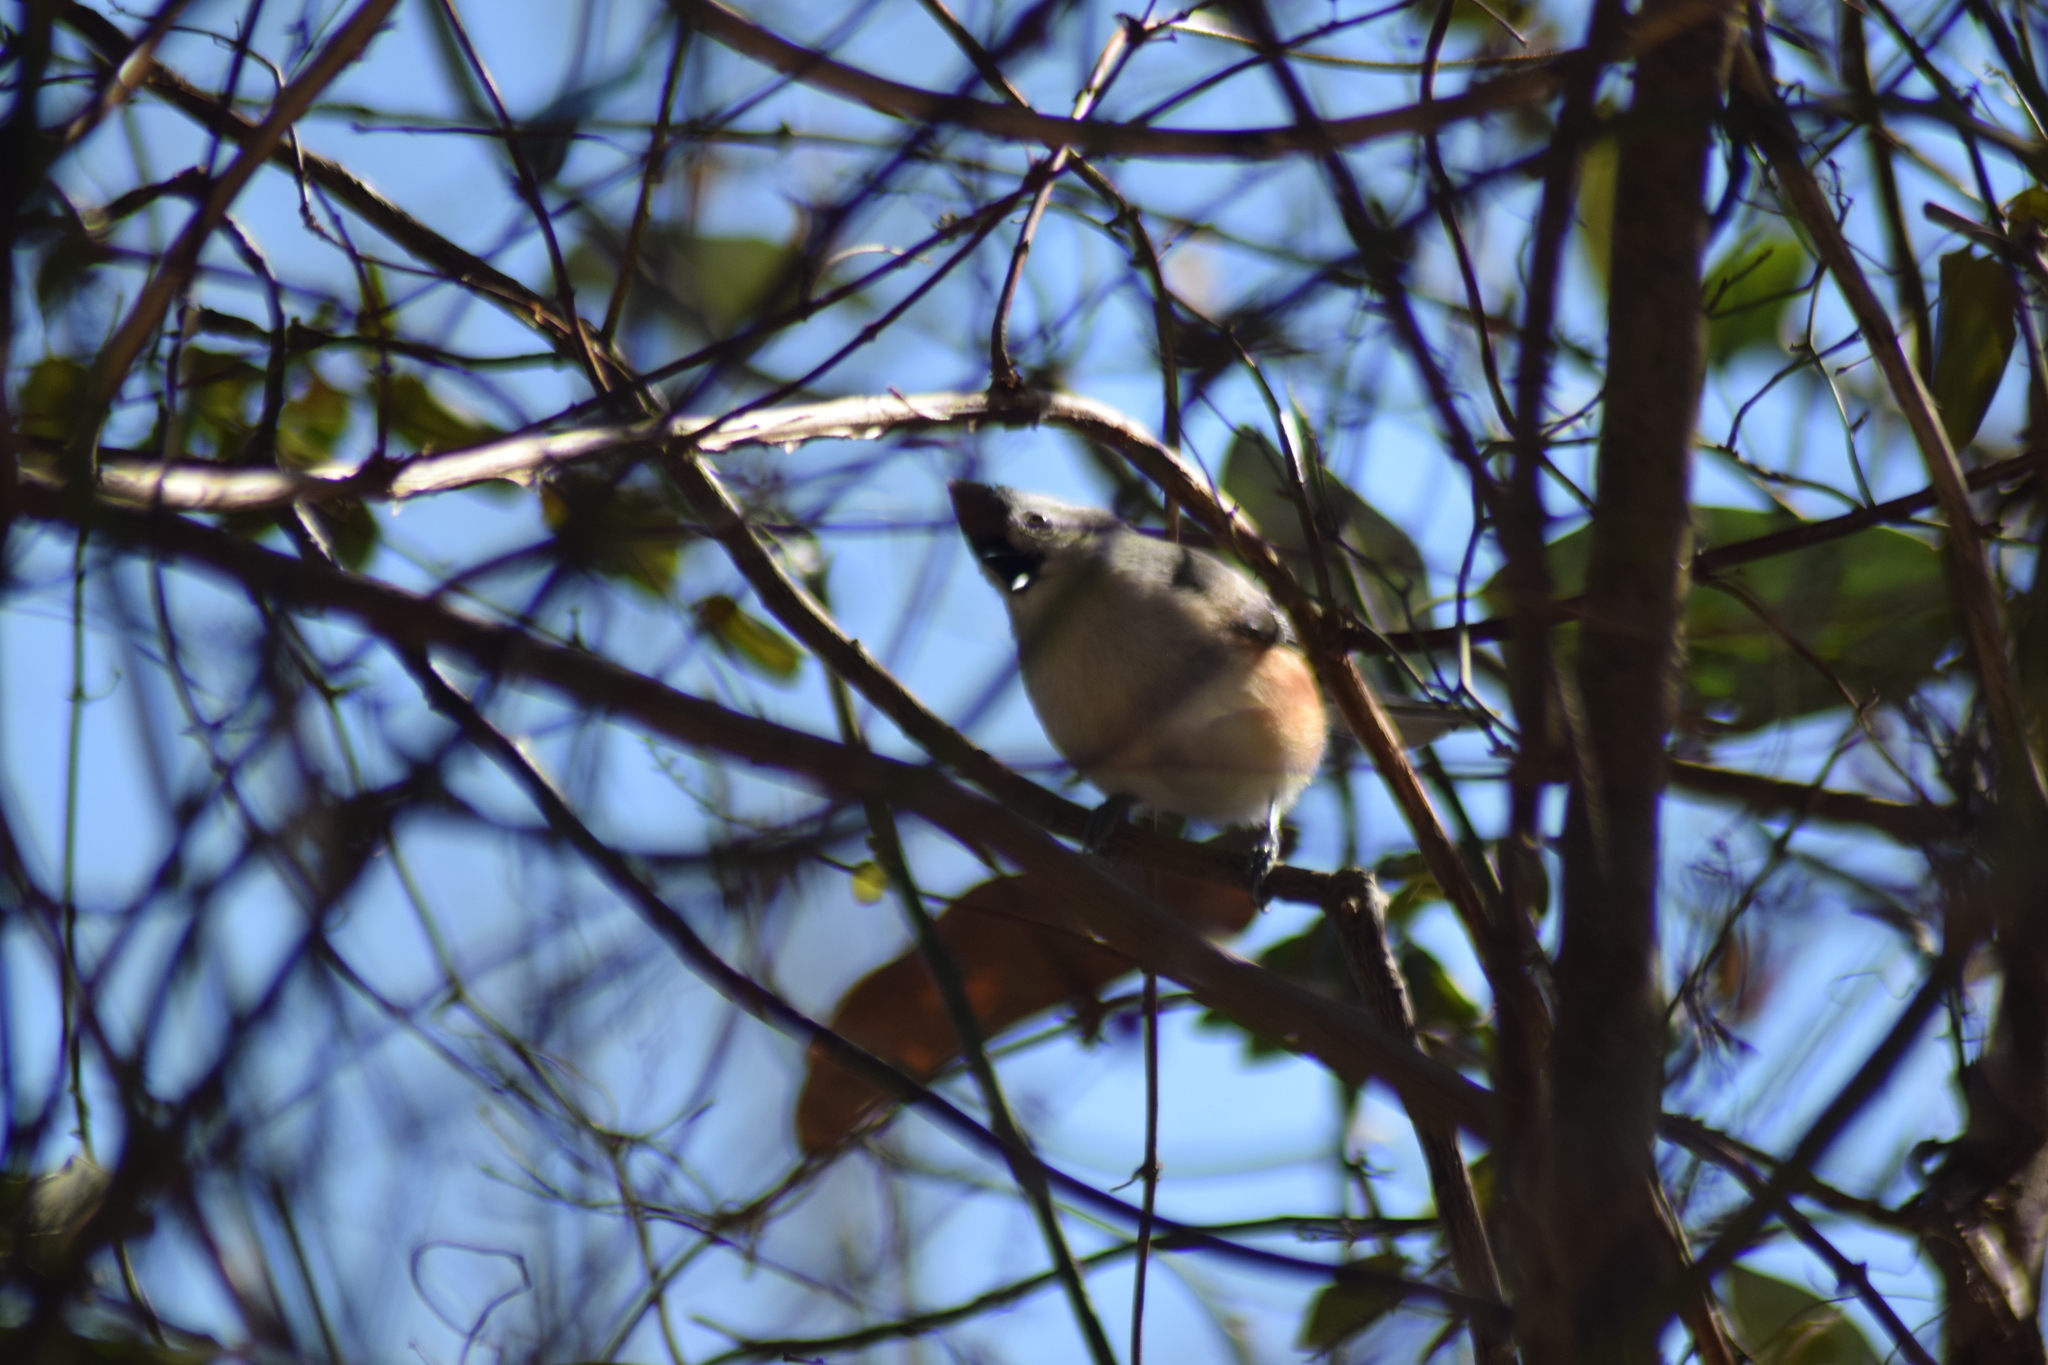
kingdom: Animalia
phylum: Chordata
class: Aves
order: Passeriformes
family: Paridae
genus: Baeolophus
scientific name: Baeolophus bicolor
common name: Tufted titmouse
